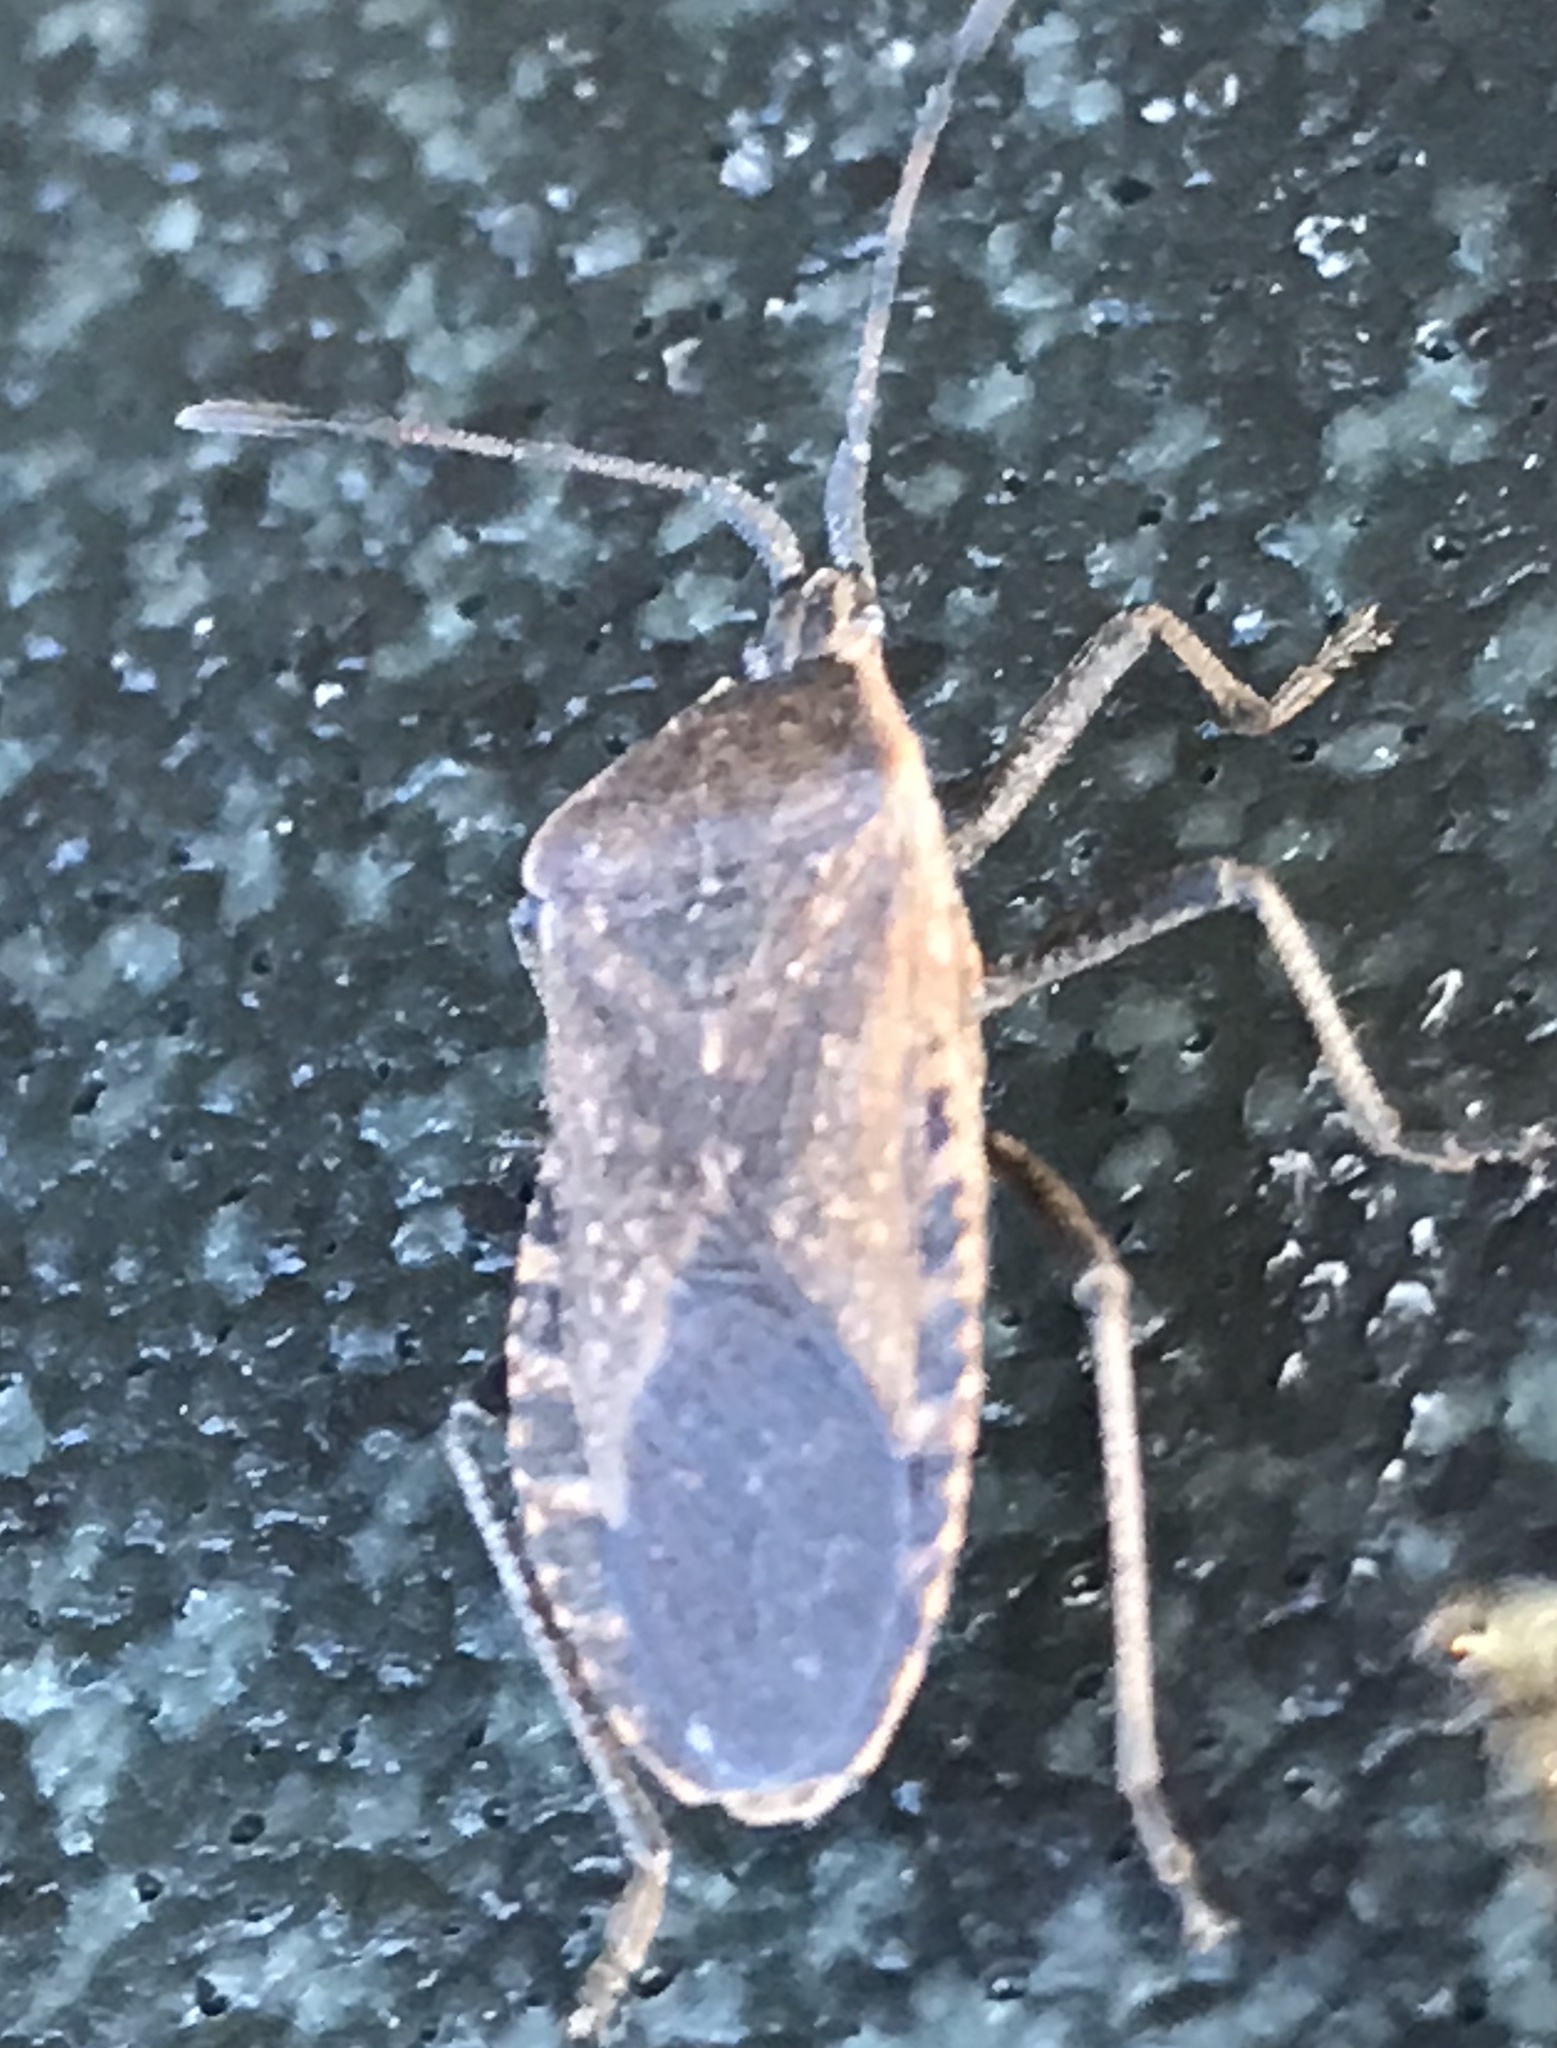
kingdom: Animalia
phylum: Arthropoda
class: Insecta
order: Hemiptera
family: Coreidae
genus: Anasa
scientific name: Anasa tristis
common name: Squash bug
